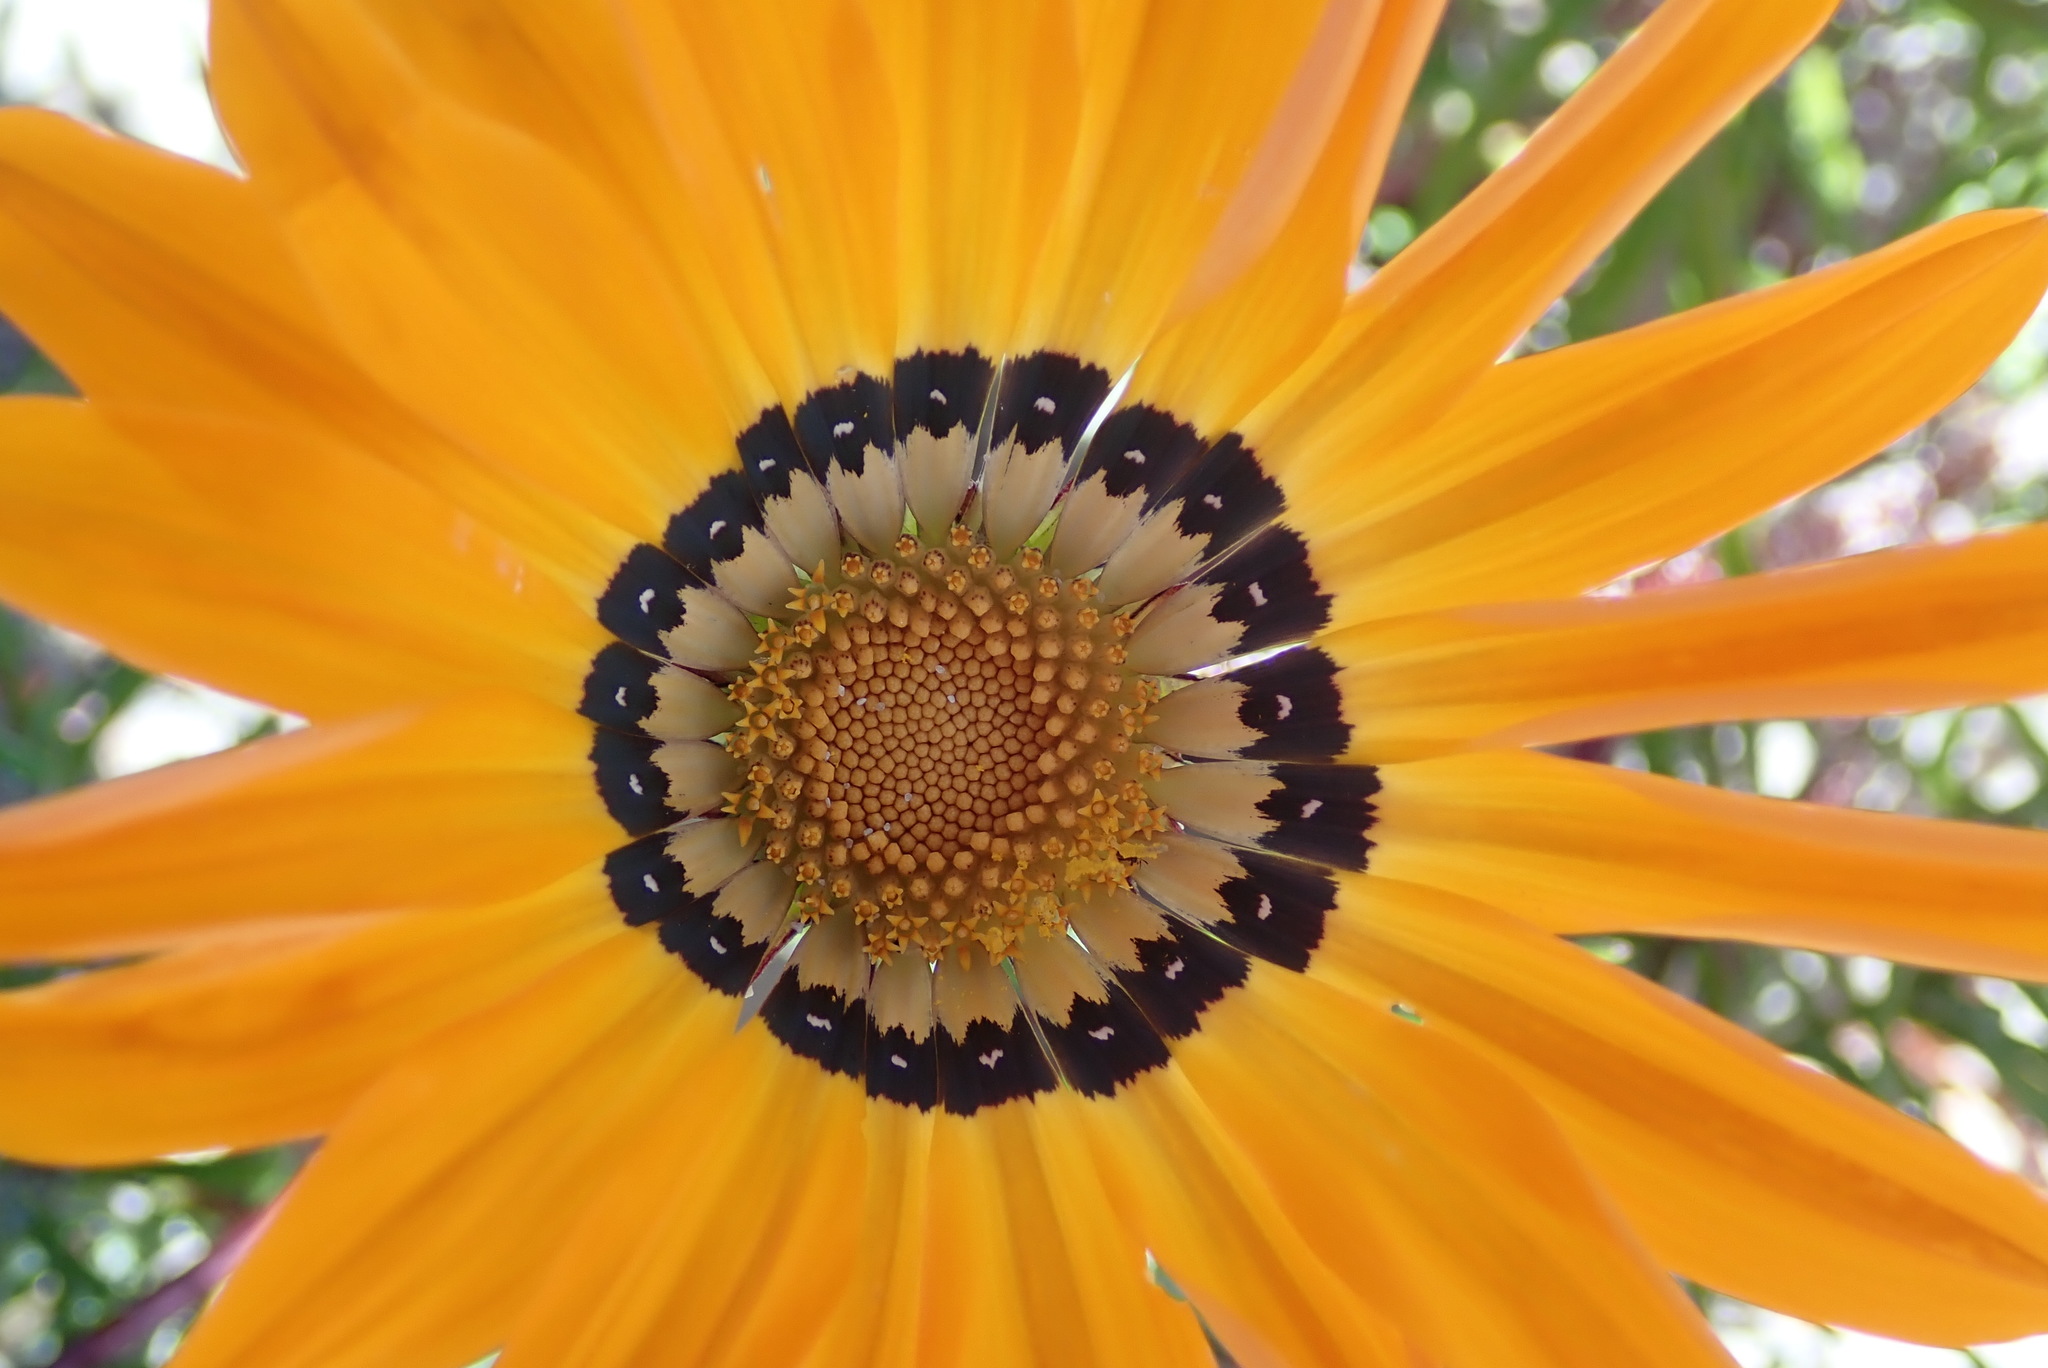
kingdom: Plantae
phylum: Tracheophyta
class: Magnoliopsida
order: Asterales
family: Asteraceae
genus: Gazania
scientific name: Gazania pectinata
